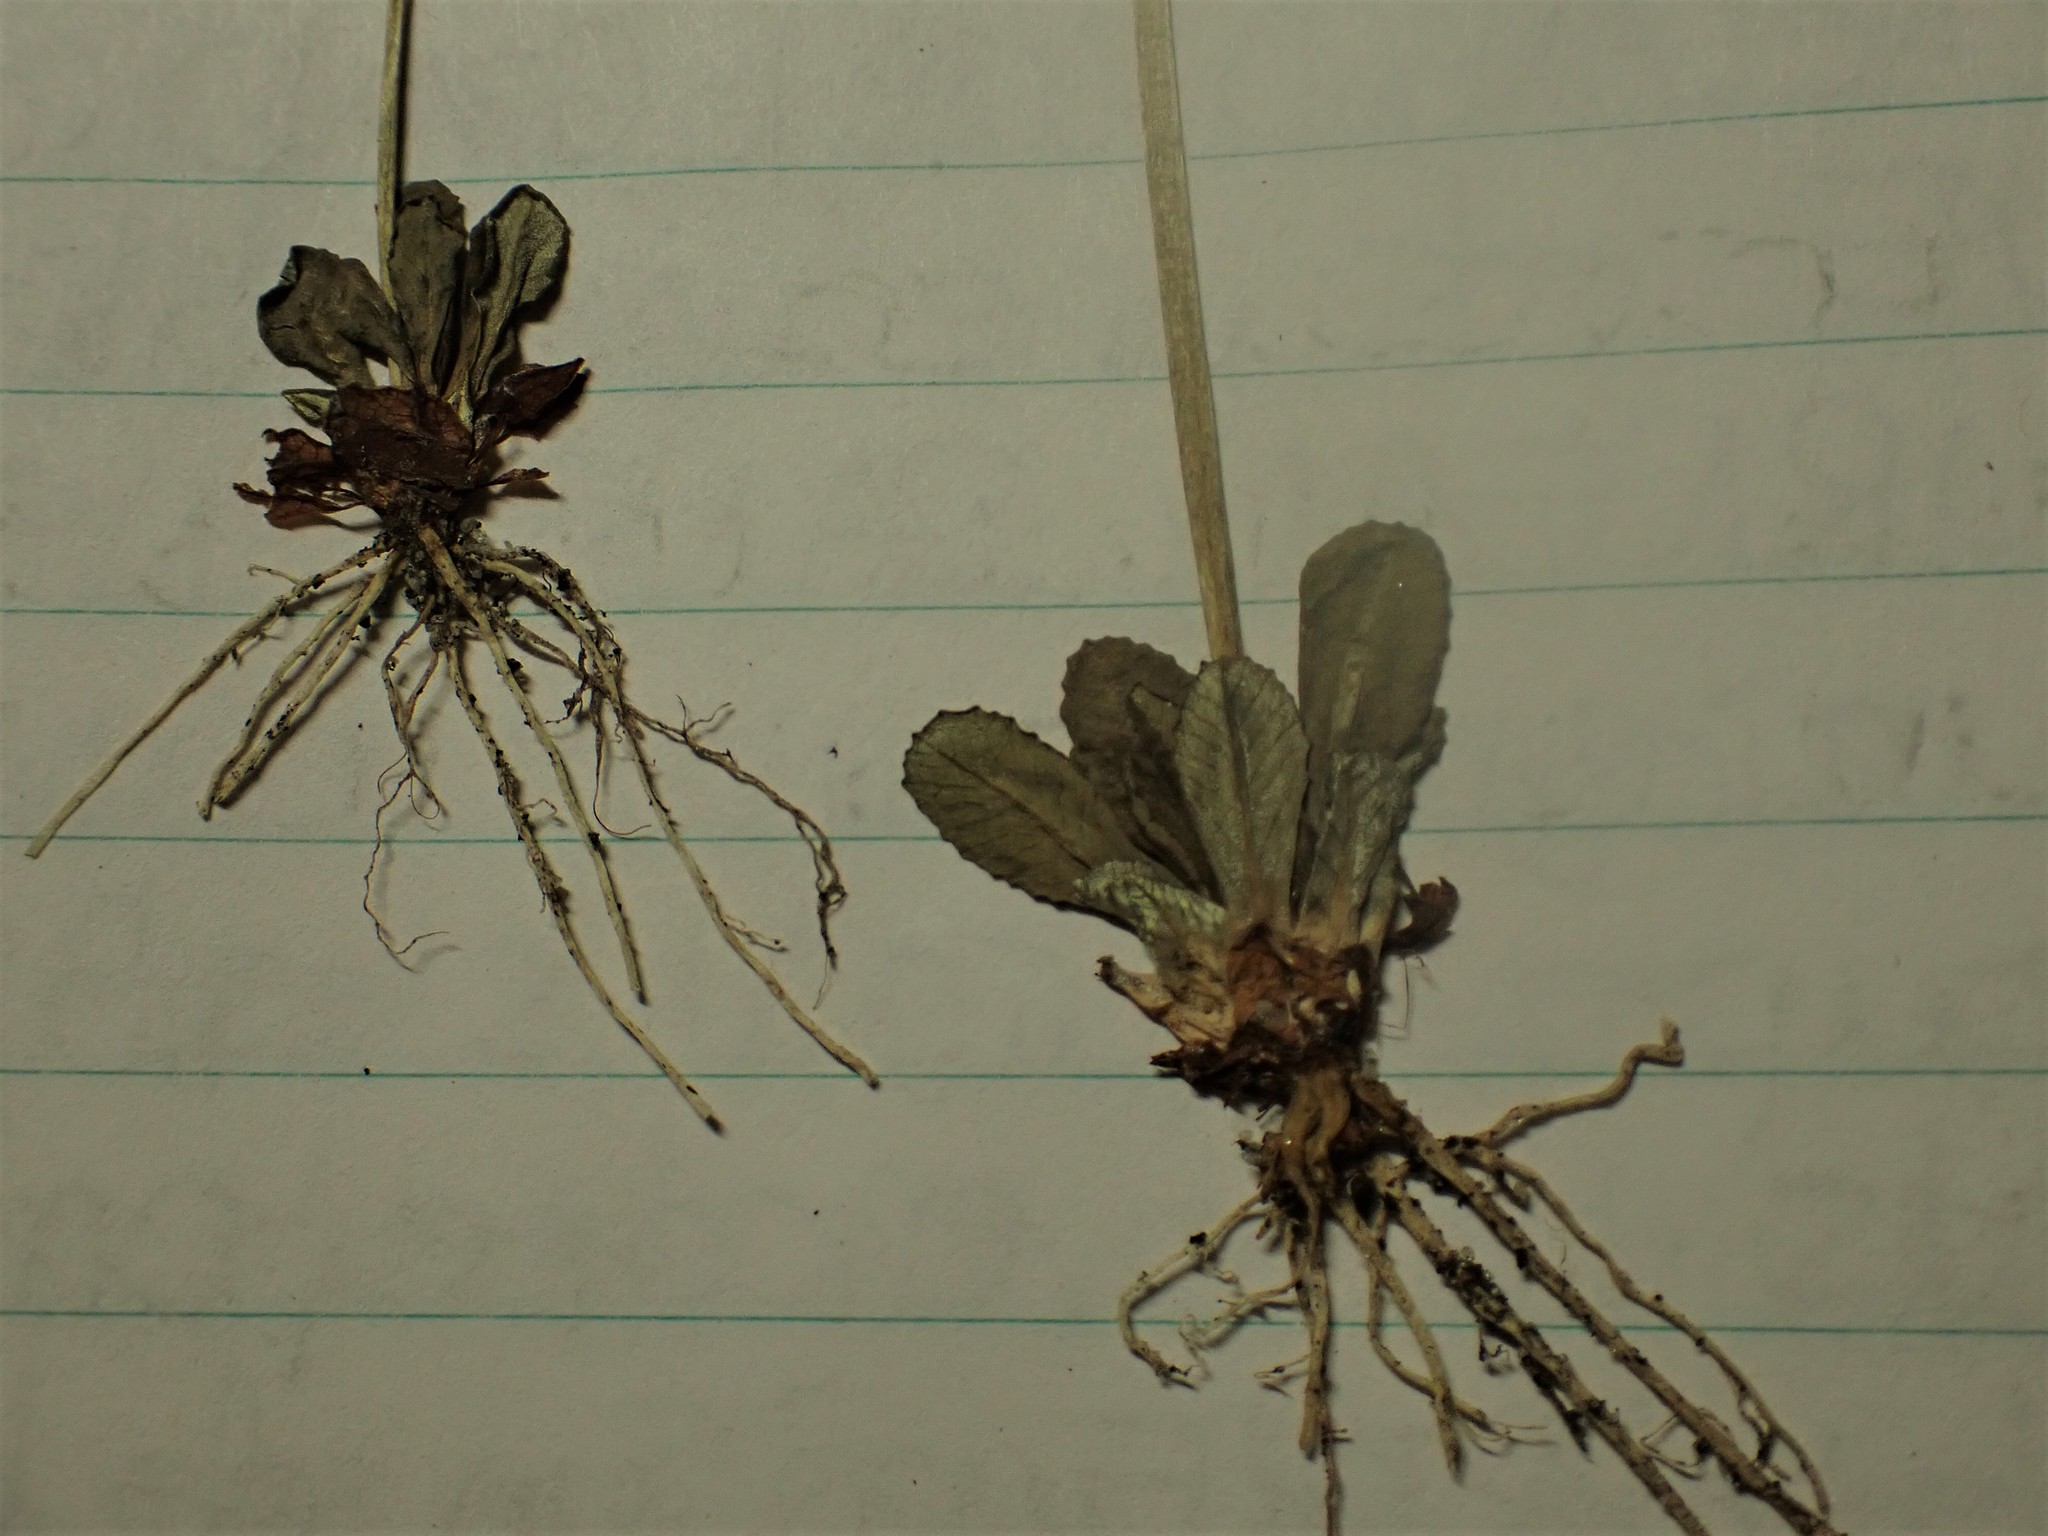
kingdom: Plantae
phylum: Tracheophyta
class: Magnoliopsida
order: Ericales
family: Primulaceae
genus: Primula
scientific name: Primula mistassinica
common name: Bird's-eye primrose
